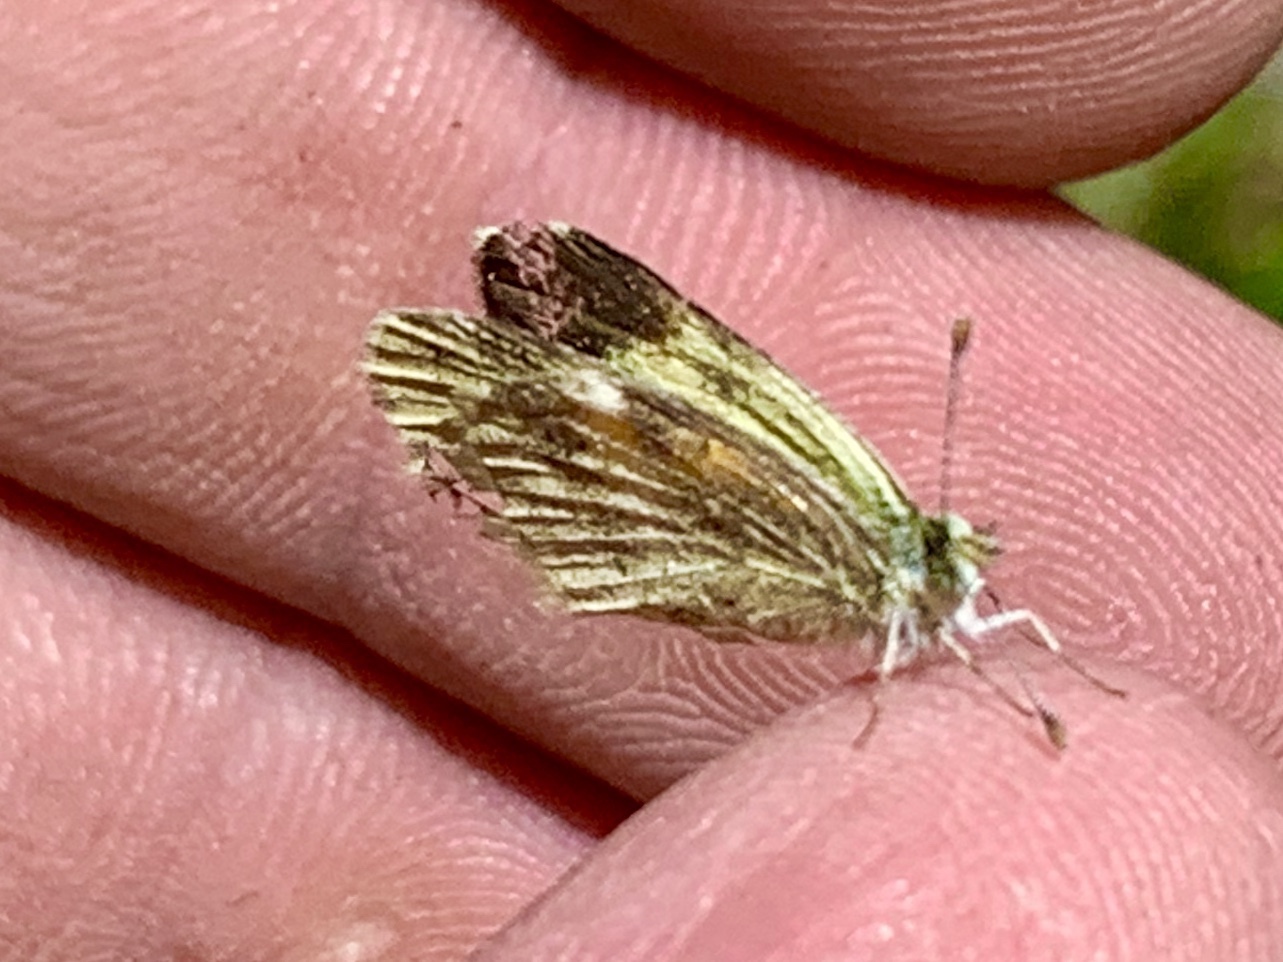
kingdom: Animalia
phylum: Arthropoda
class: Insecta
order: Lepidoptera
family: Pieridae
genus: Nathalis
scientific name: Nathalis iole
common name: Dainty sulphur
